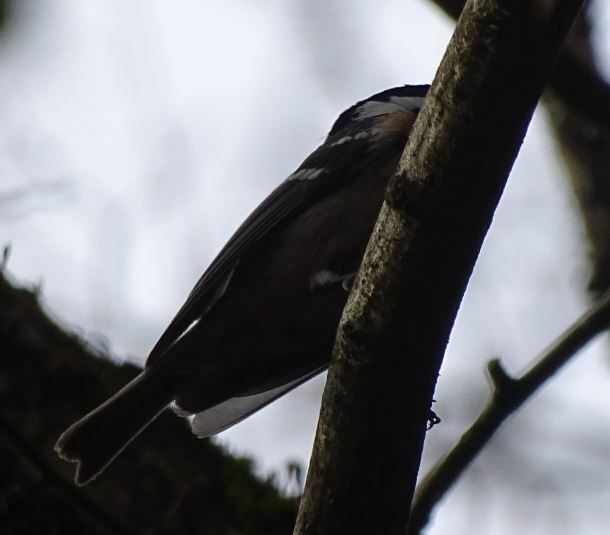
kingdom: Animalia
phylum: Chordata
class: Aves
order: Passeriformes
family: Paridae
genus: Periparus
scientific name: Periparus ater
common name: Coal tit
